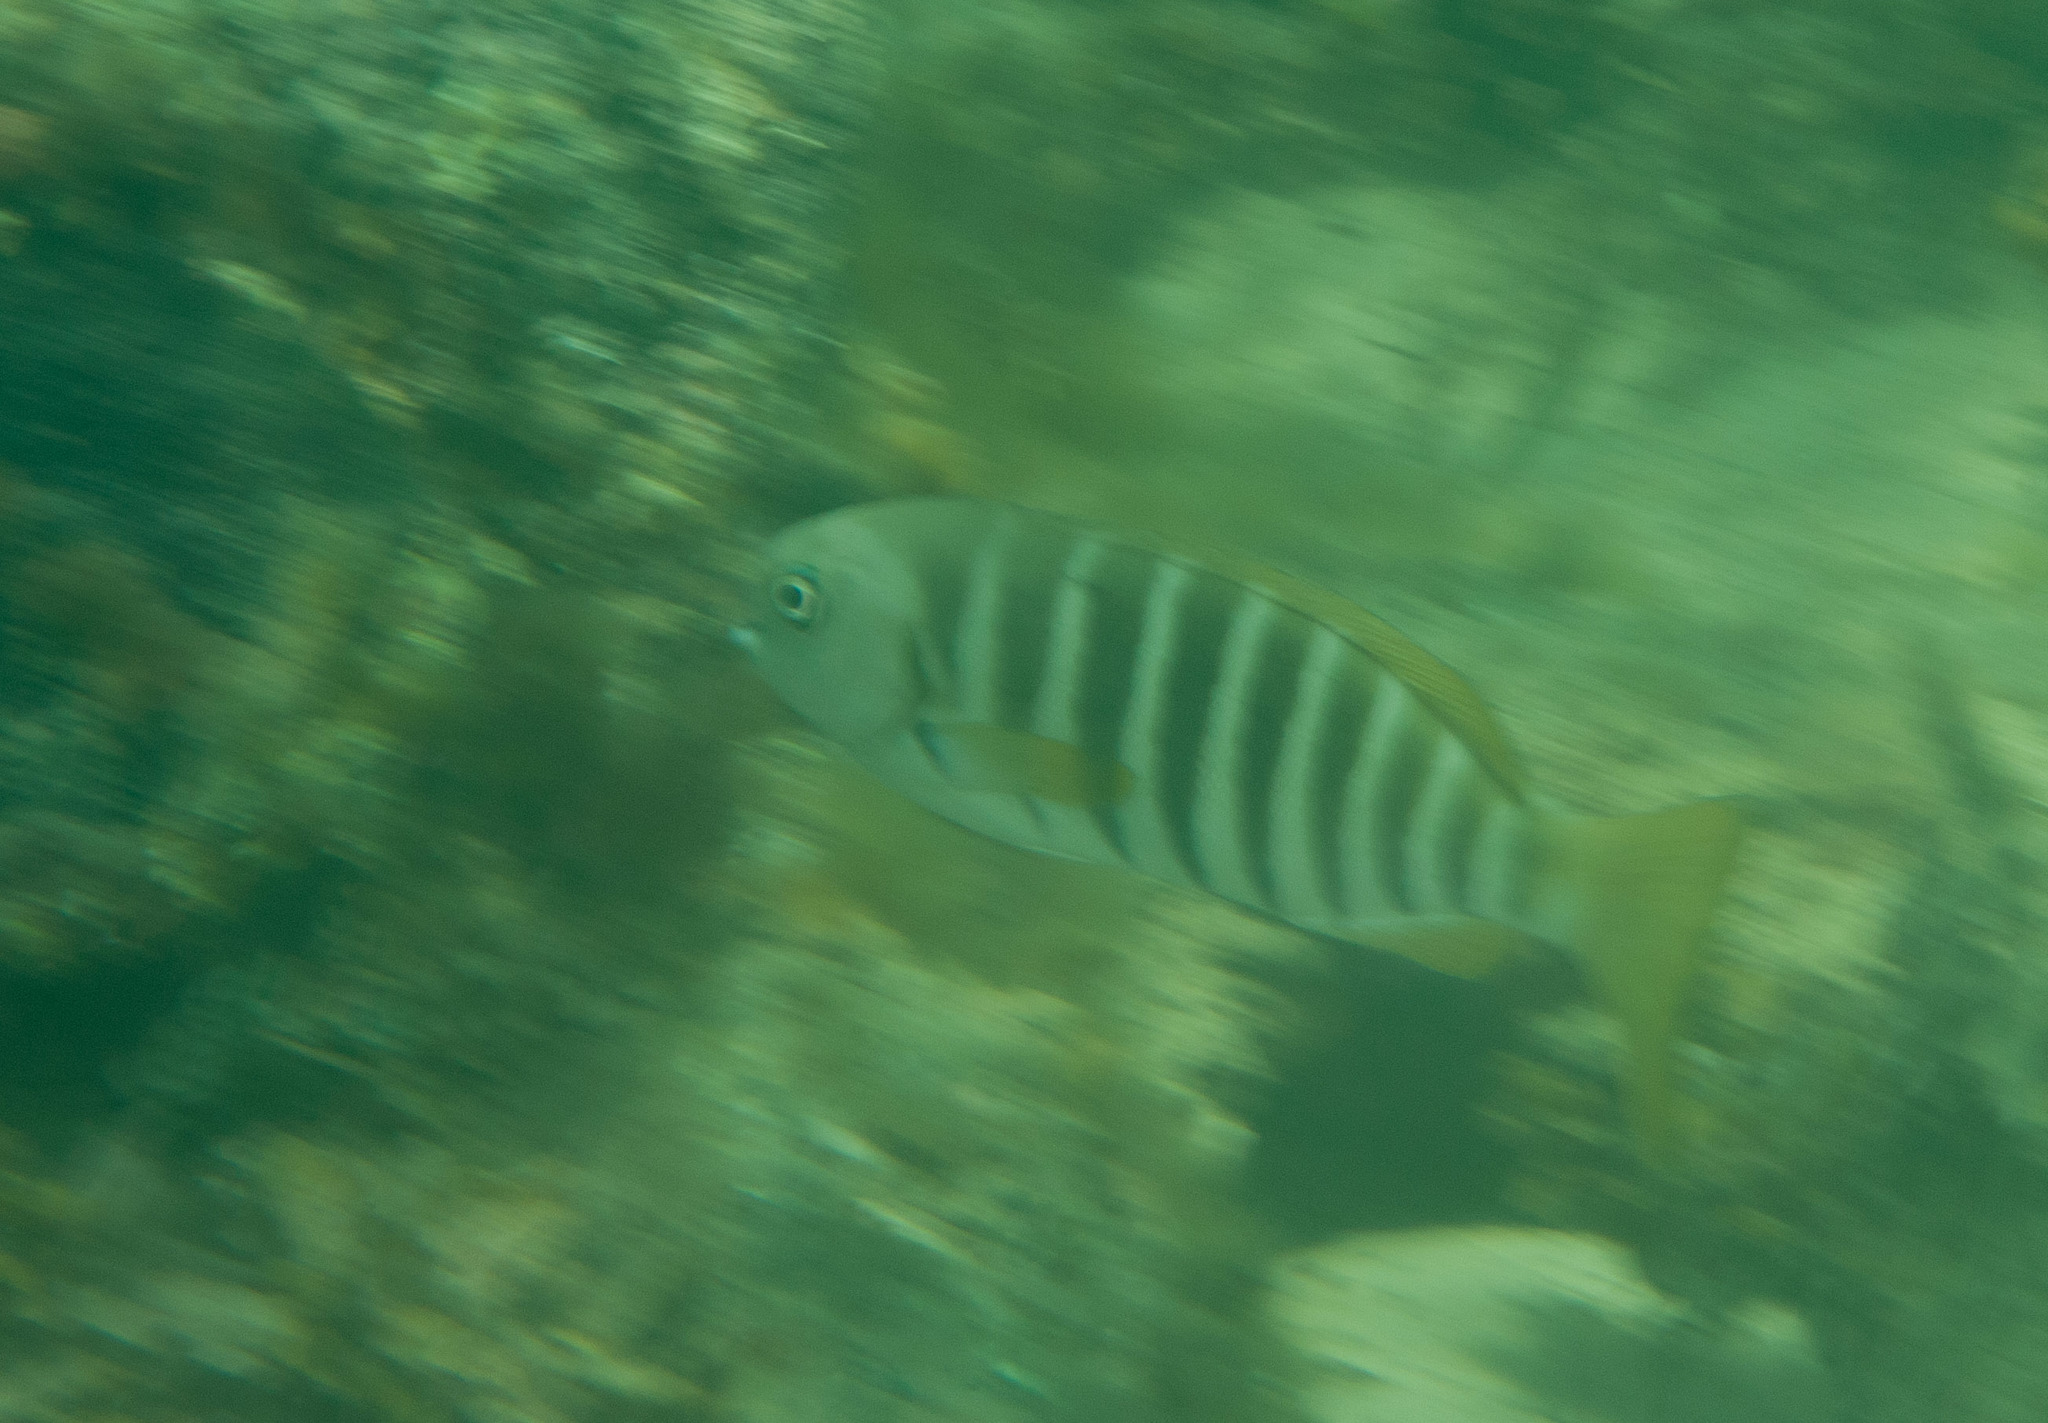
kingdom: Animalia
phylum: Chordata
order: Perciformes
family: Kyphosidae
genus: Girella
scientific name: Girella zebra
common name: Stripey bream
